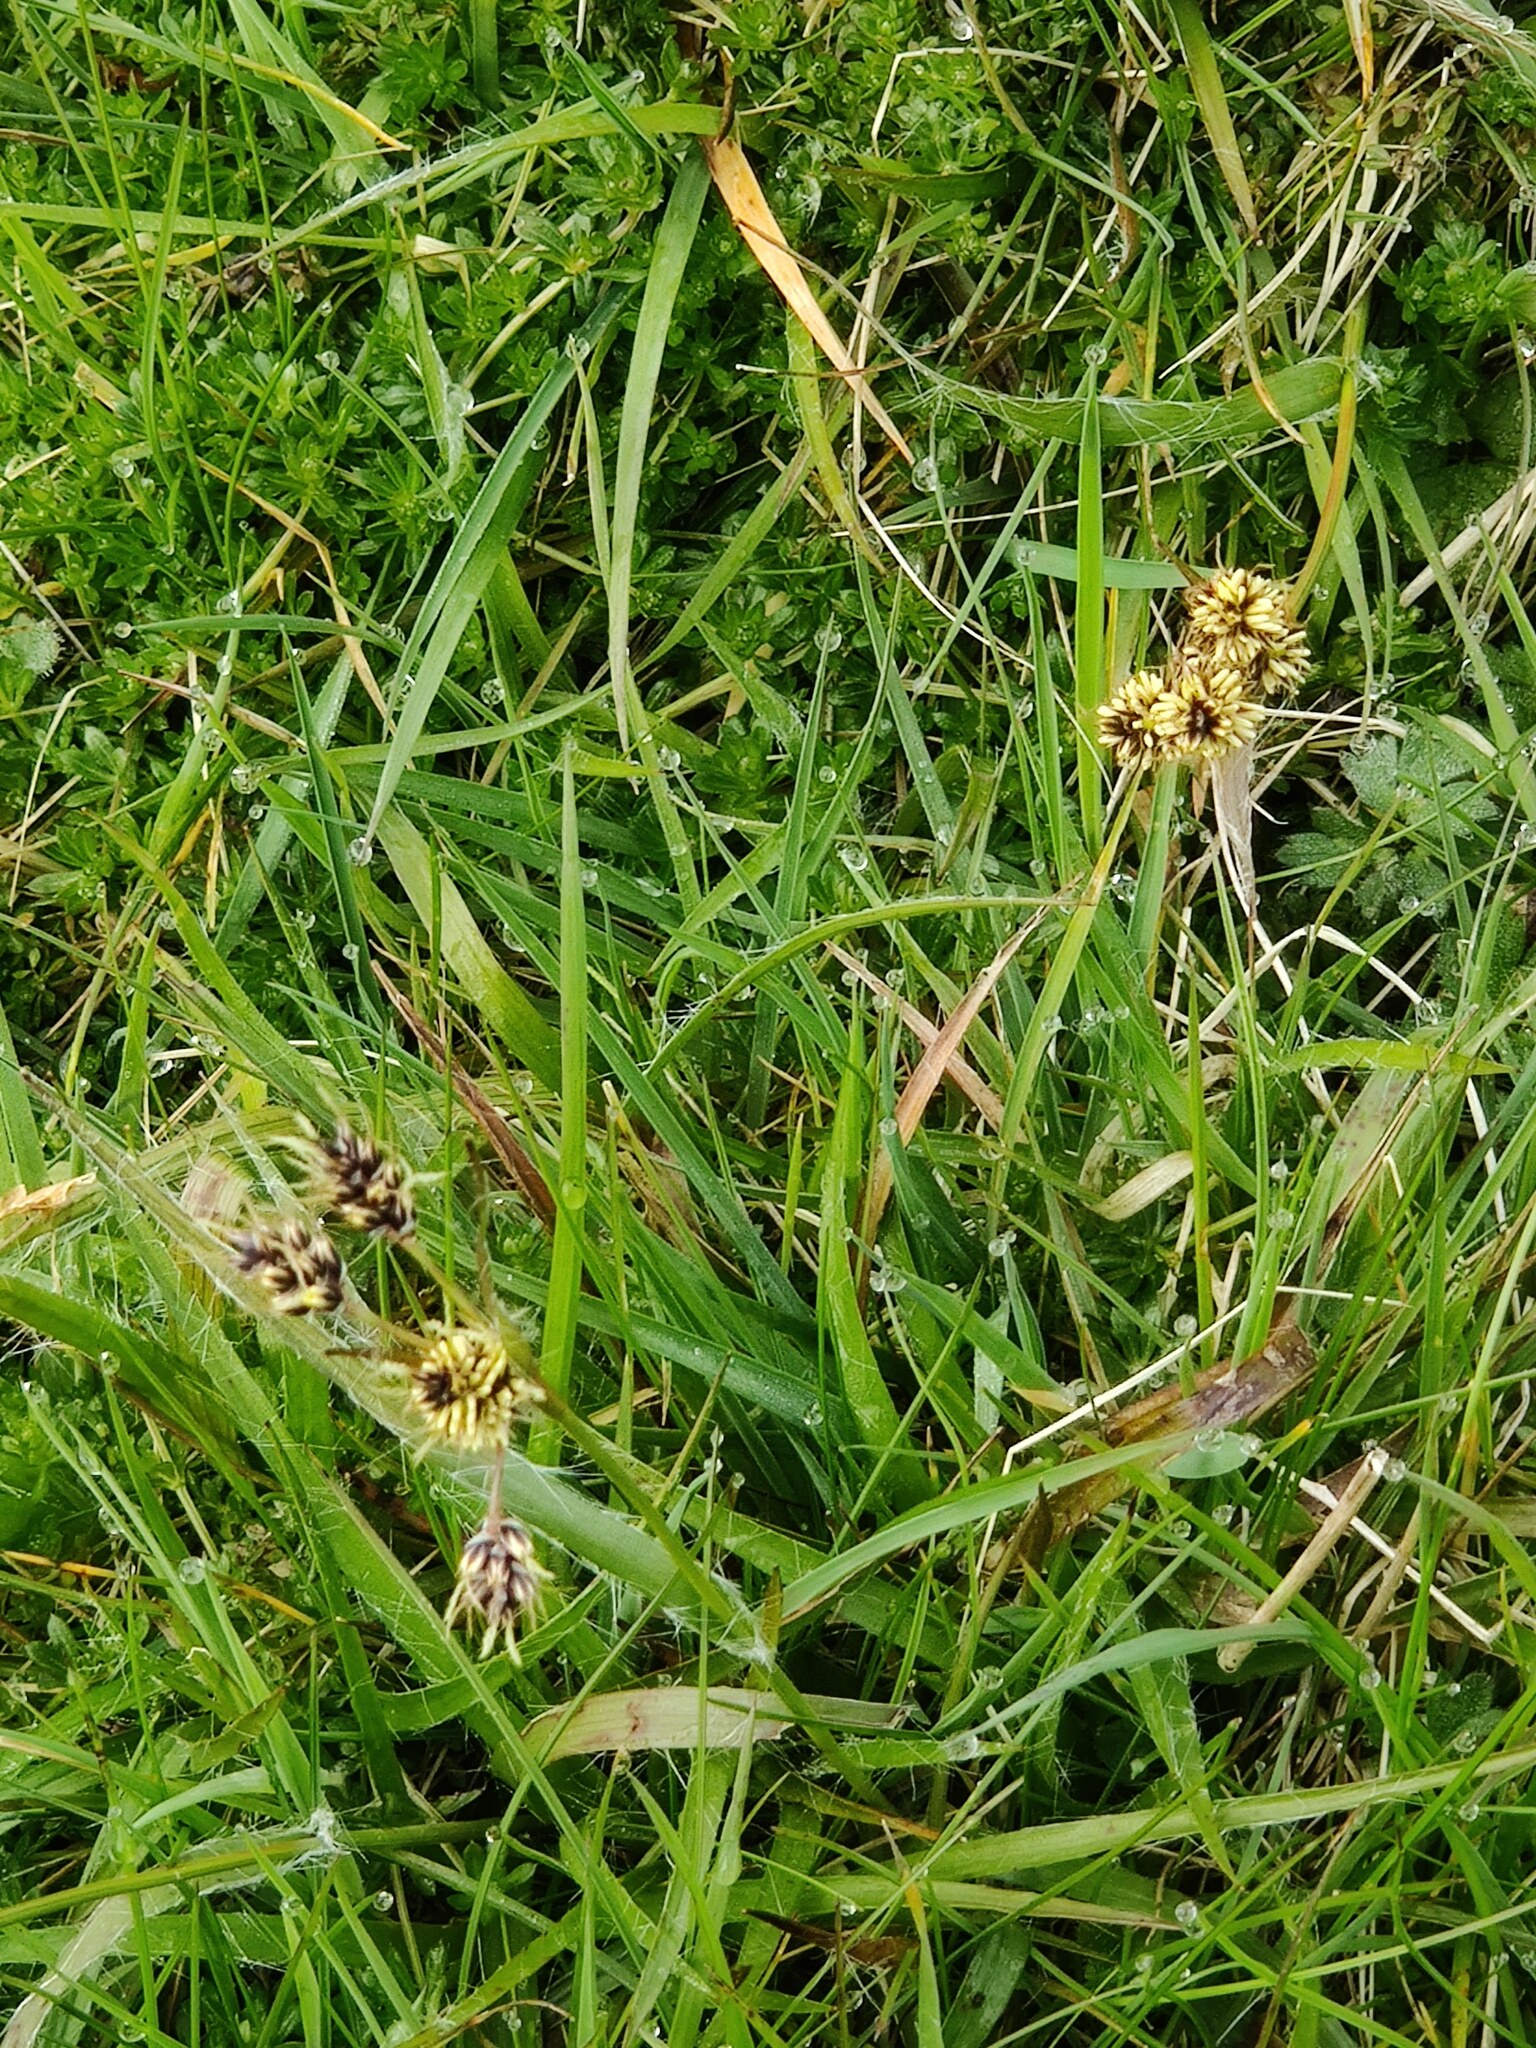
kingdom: Plantae
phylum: Tracheophyta
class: Liliopsida
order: Poales
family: Juncaceae
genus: Luzula
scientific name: Luzula campestris
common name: Field wood-rush
